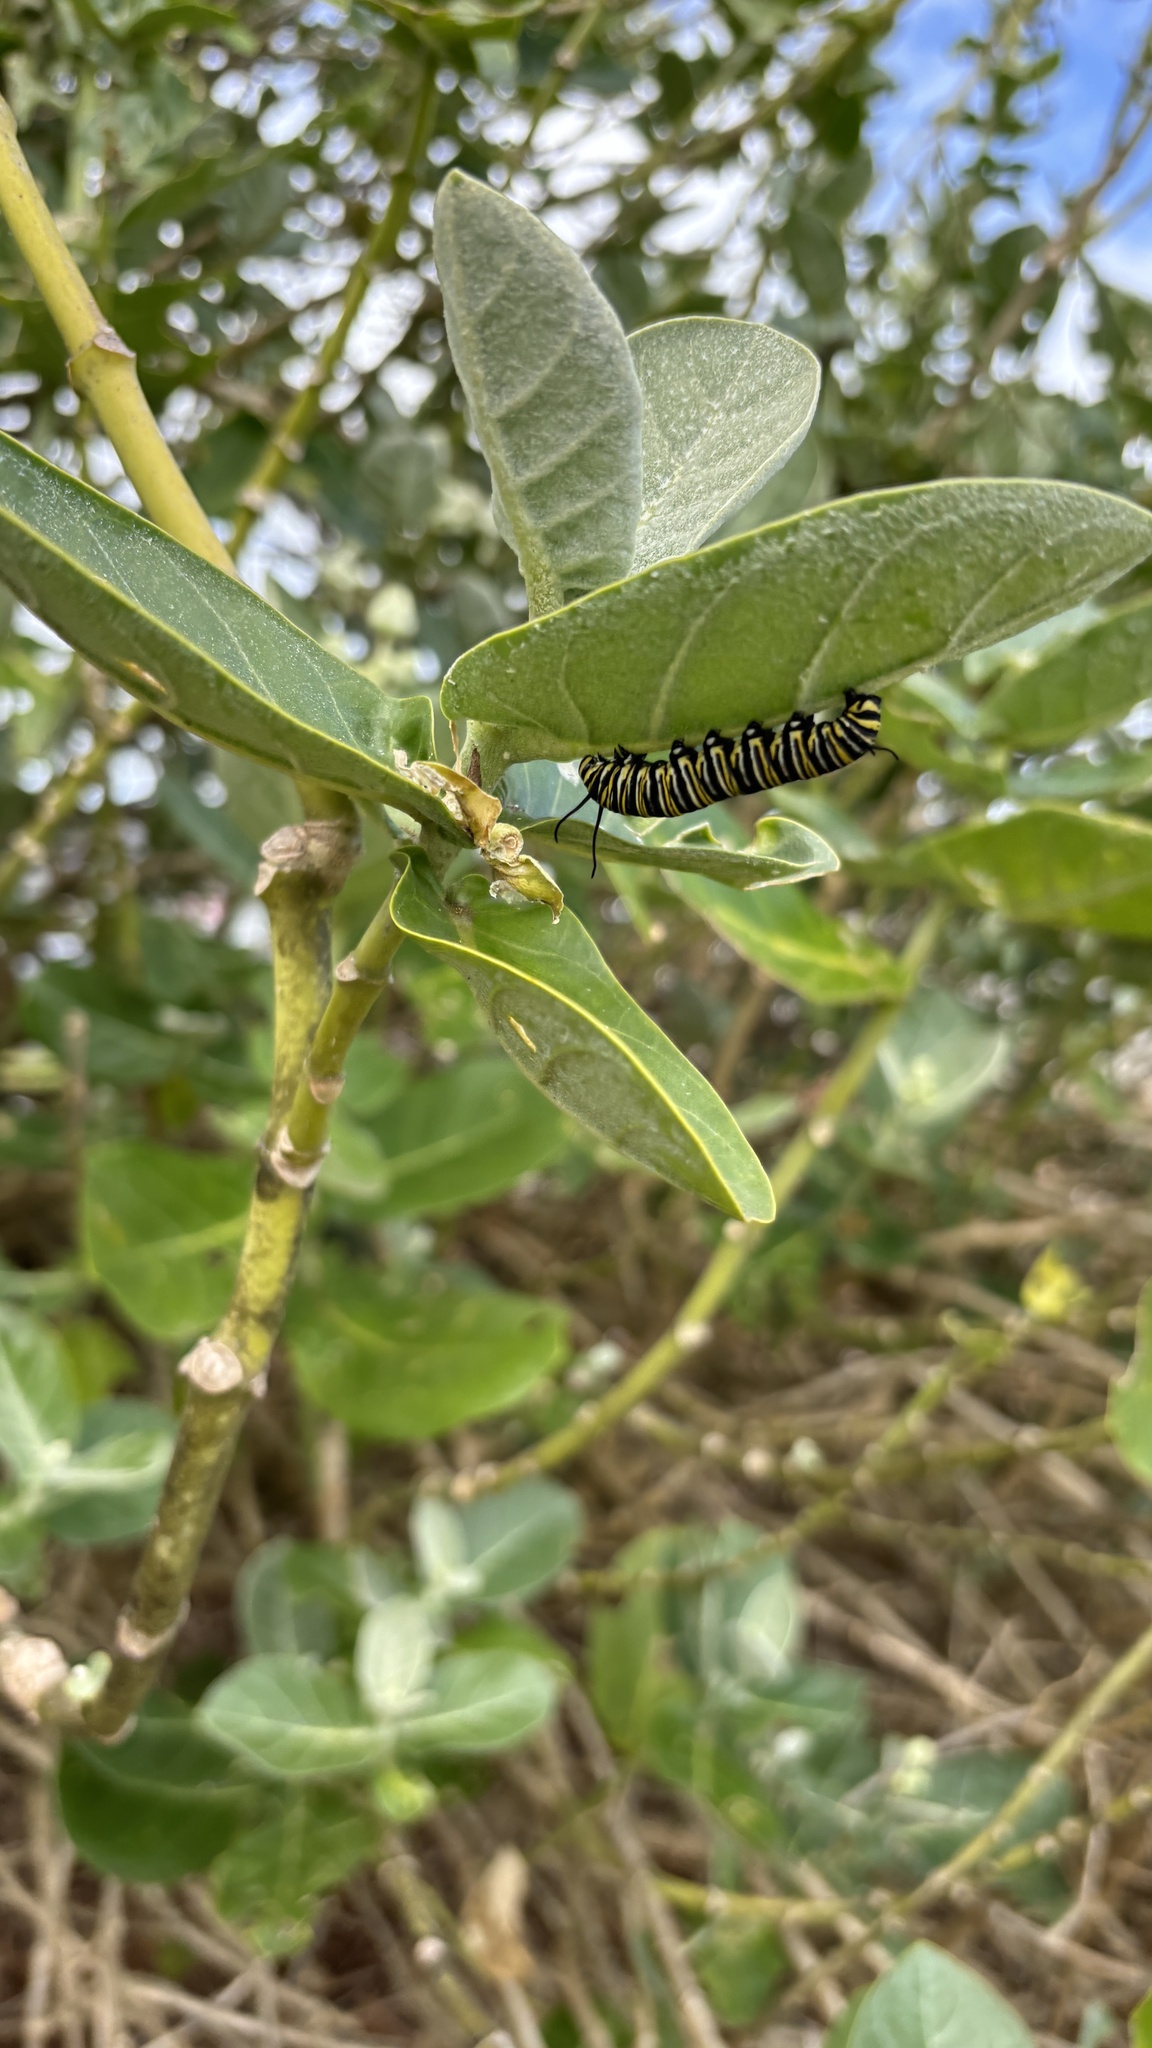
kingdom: Animalia
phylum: Arthropoda
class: Insecta
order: Lepidoptera
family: Nymphalidae
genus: Danaus
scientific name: Danaus plexippus
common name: Monarch
